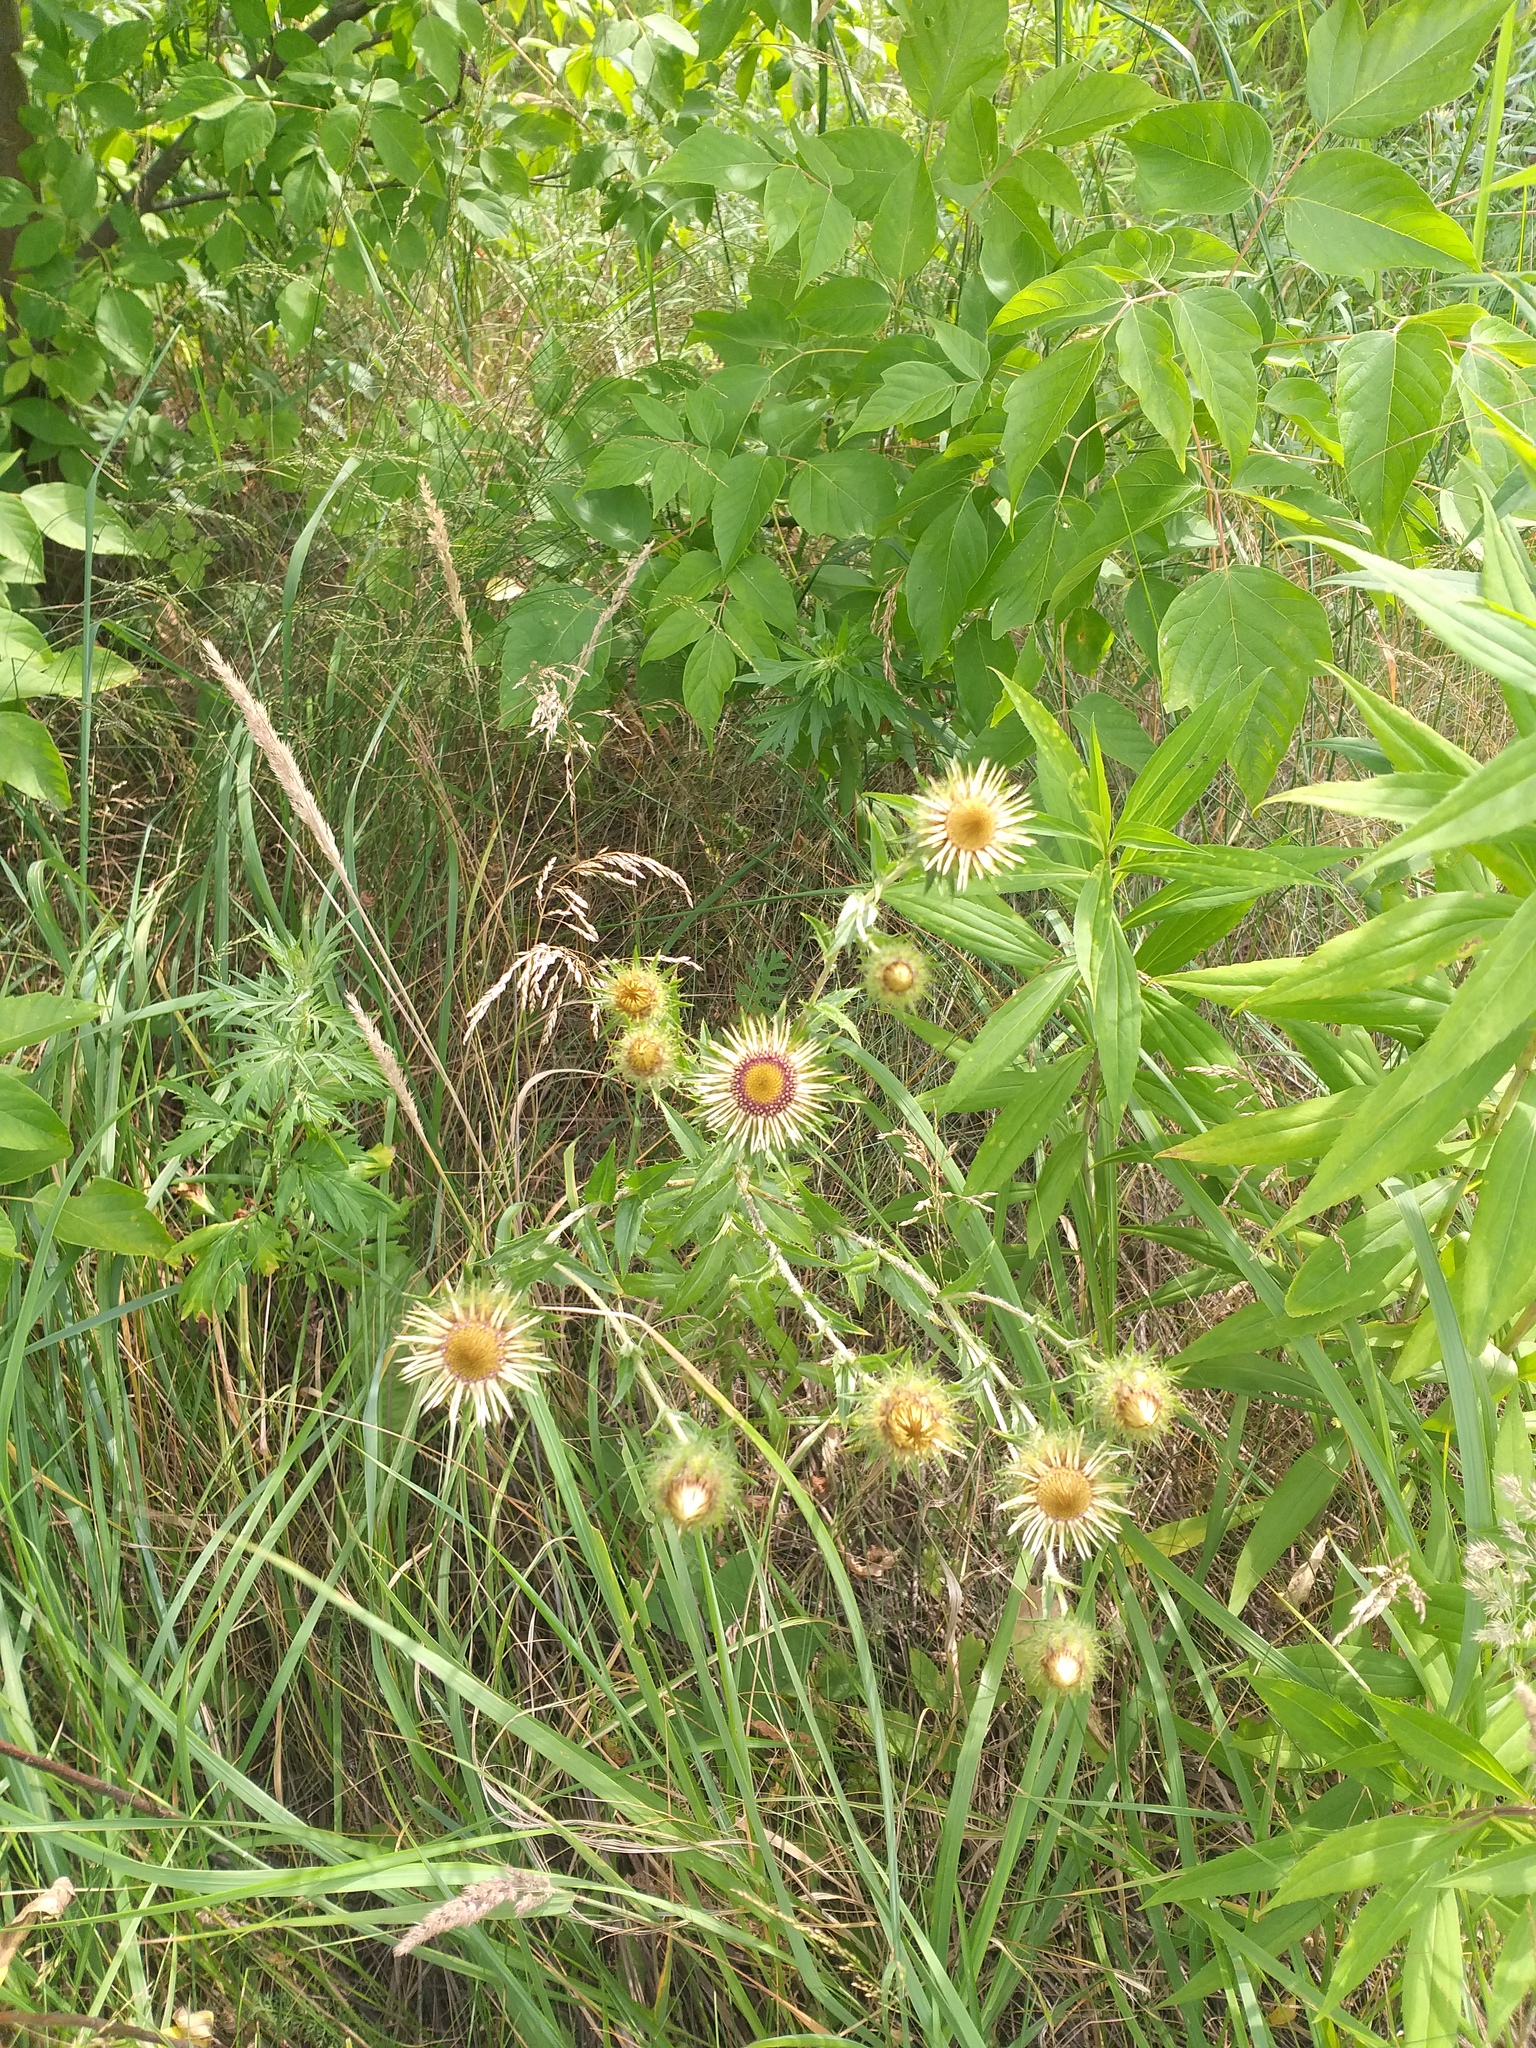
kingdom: Plantae
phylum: Tracheophyta
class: Magnoliopsida
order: Asterales
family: Asteraceae
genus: Carlina
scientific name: Carlina biebersteinii
